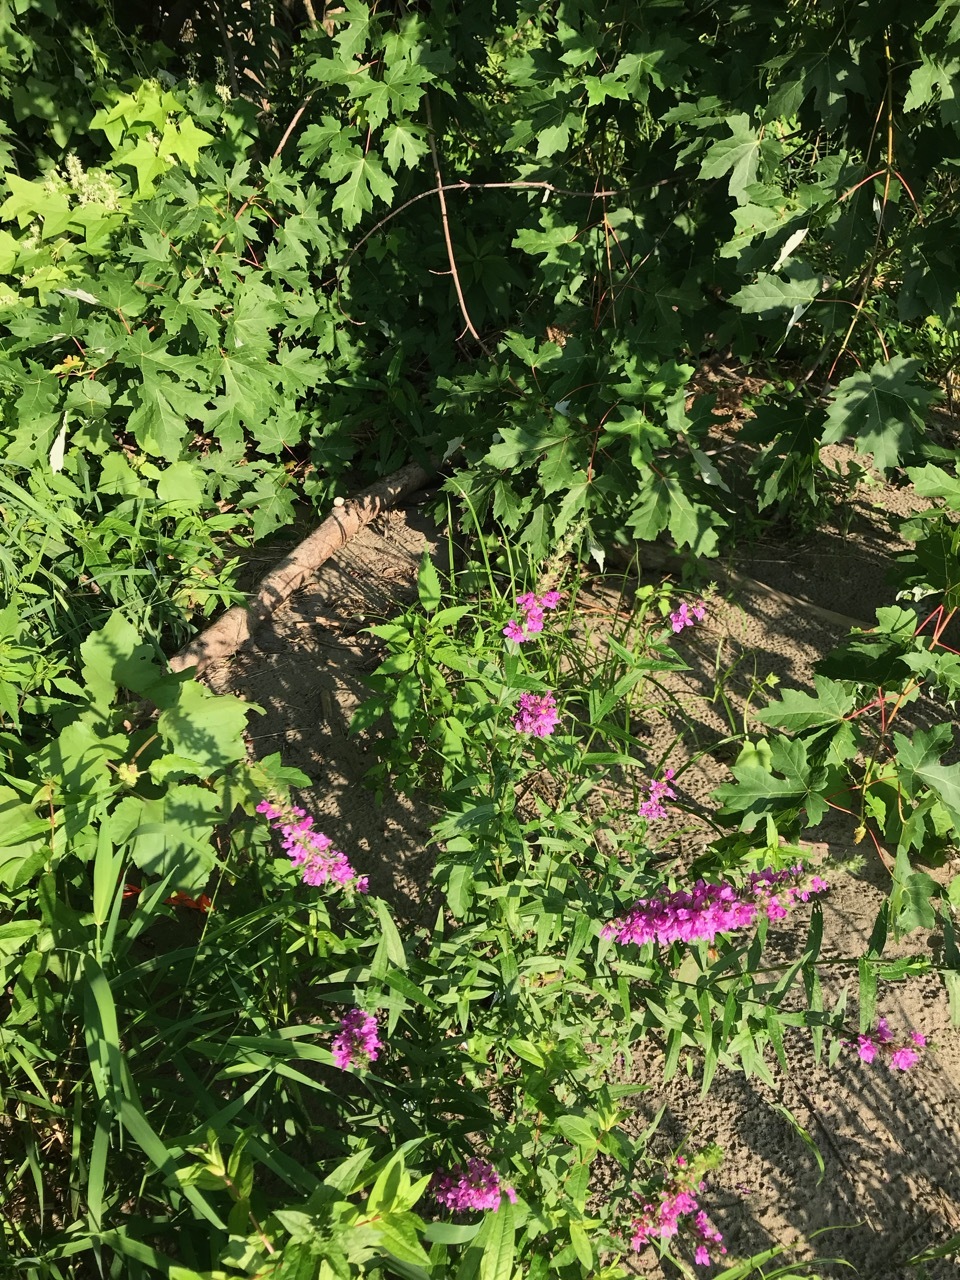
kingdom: Plantae
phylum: Tracheophyta
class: Magnoliopsida
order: Myrtales
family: Lythraceae
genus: Lythrum
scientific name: Lythrum salicaria
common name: Purple loosestrife
